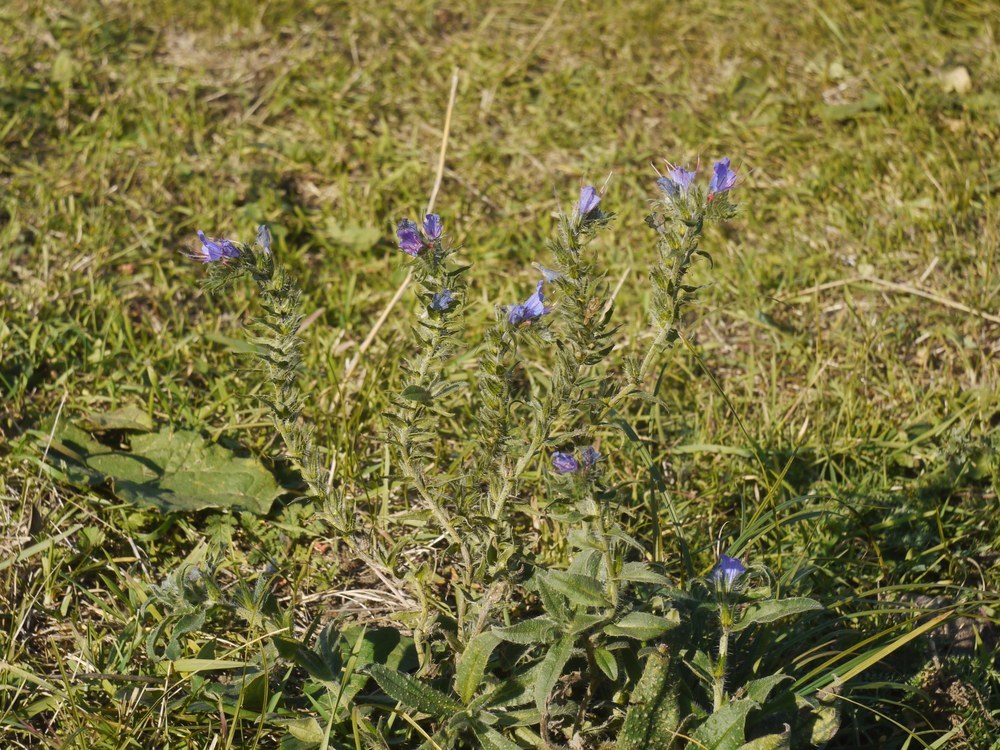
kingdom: Plantae
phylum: Tracheophyta
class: Magnoliopsida
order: Boraginales
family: Boraginaceae
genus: Echium
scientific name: Echium vulgare
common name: Common viper's bugloss
